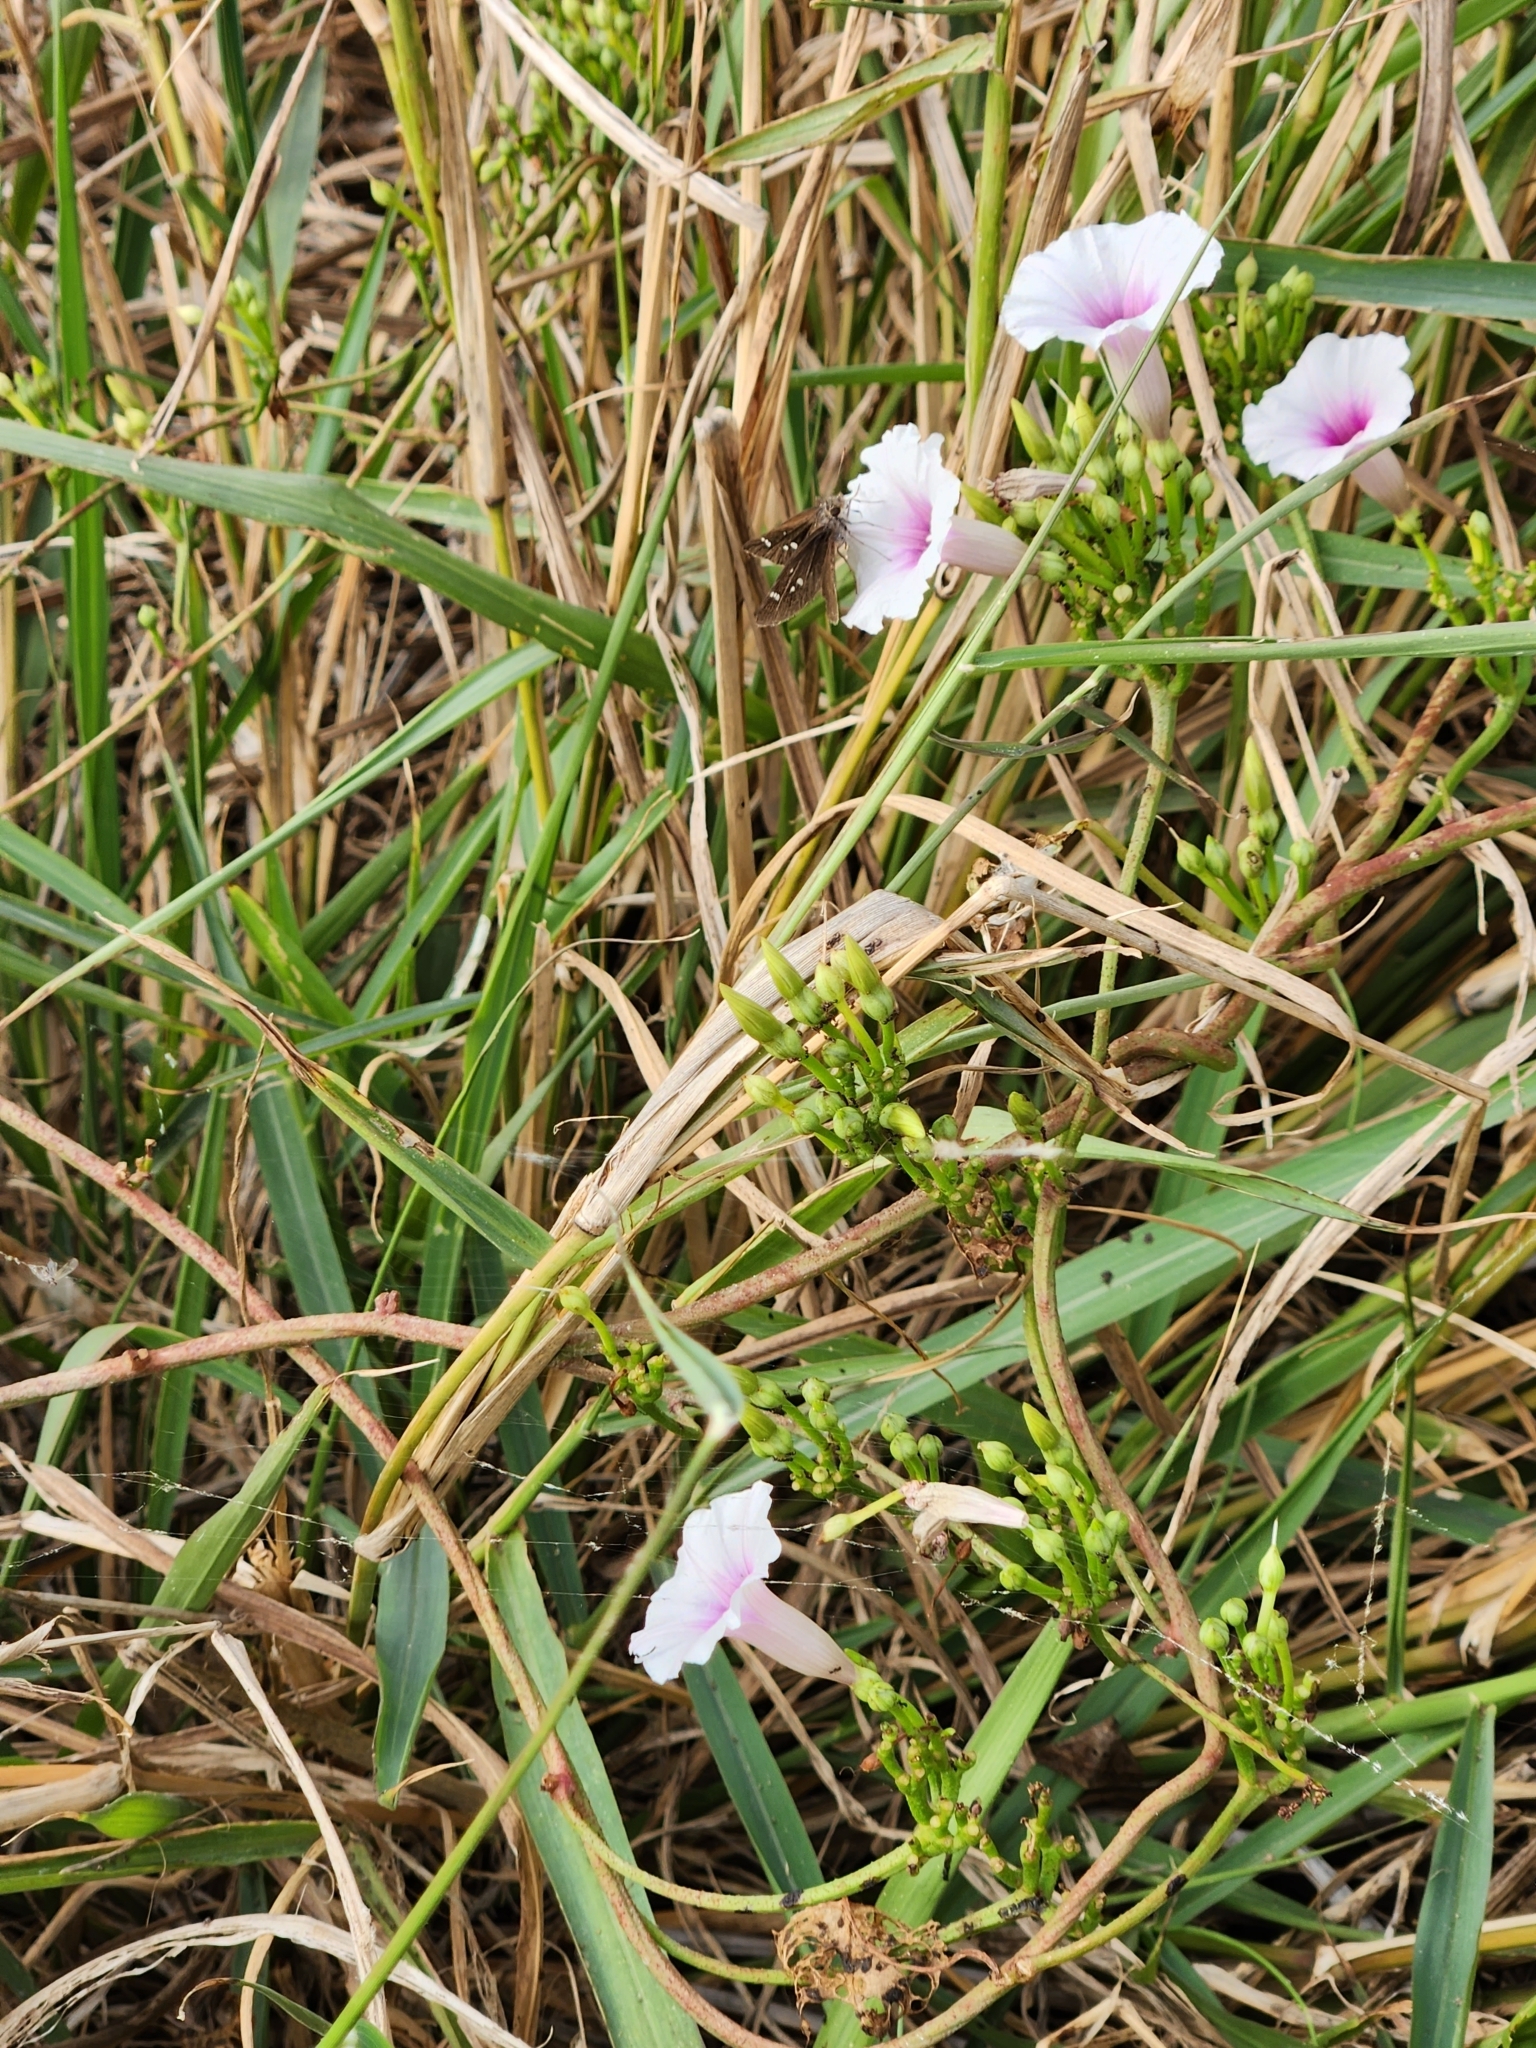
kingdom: Plantae
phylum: Tracheophyta
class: Magnoliopsida
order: Solanales
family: Convolvulaceae
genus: Ipomoea
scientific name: Ipomoea amnicola
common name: Redcenter morning-glory
